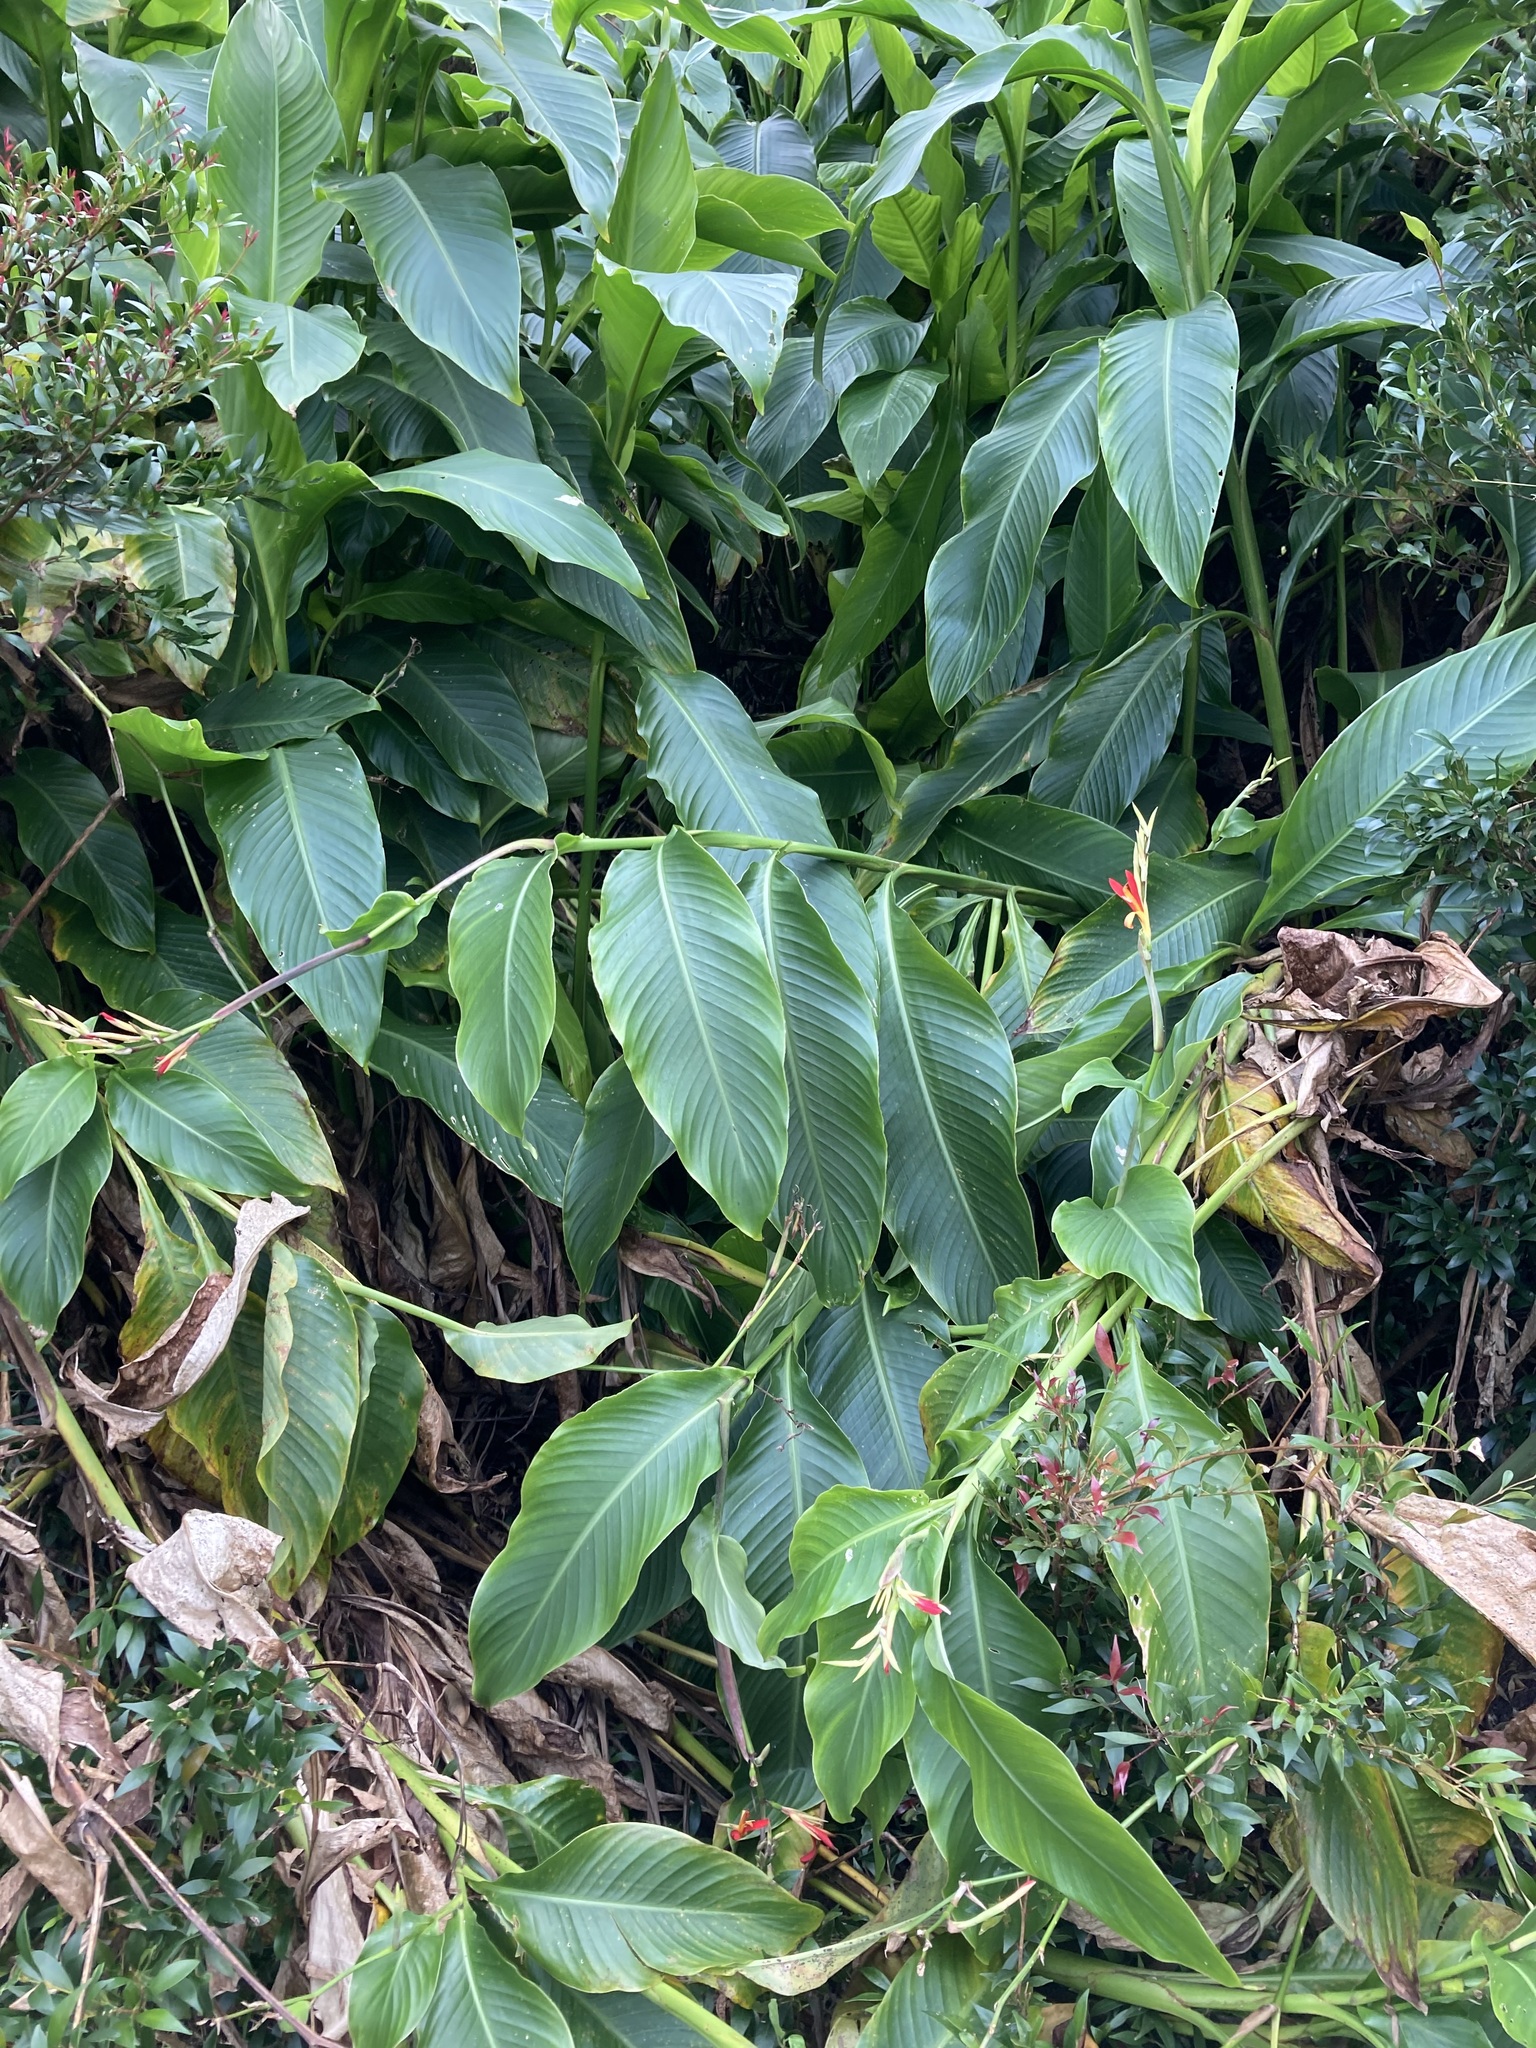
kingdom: Plantae
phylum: Tracheophyta
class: Liliopsida
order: Zingiberales
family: Cannaceae
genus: Canna
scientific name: Canna indica
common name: Indian shot
